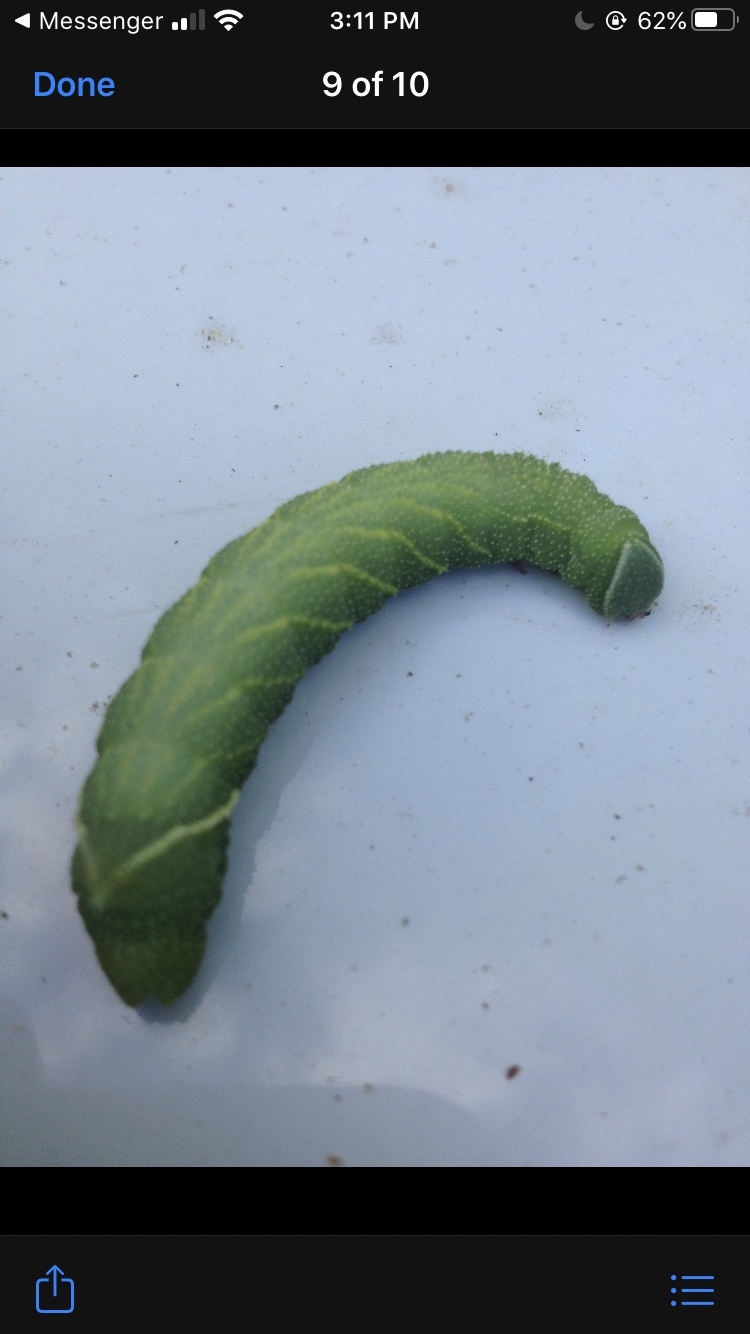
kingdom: Animalia
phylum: Arthropoda
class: Insecta
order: Lepidoptera
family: Sphingidae
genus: Pachysphinx
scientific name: Pachysphinx modesta
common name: Big poplar sphinx
